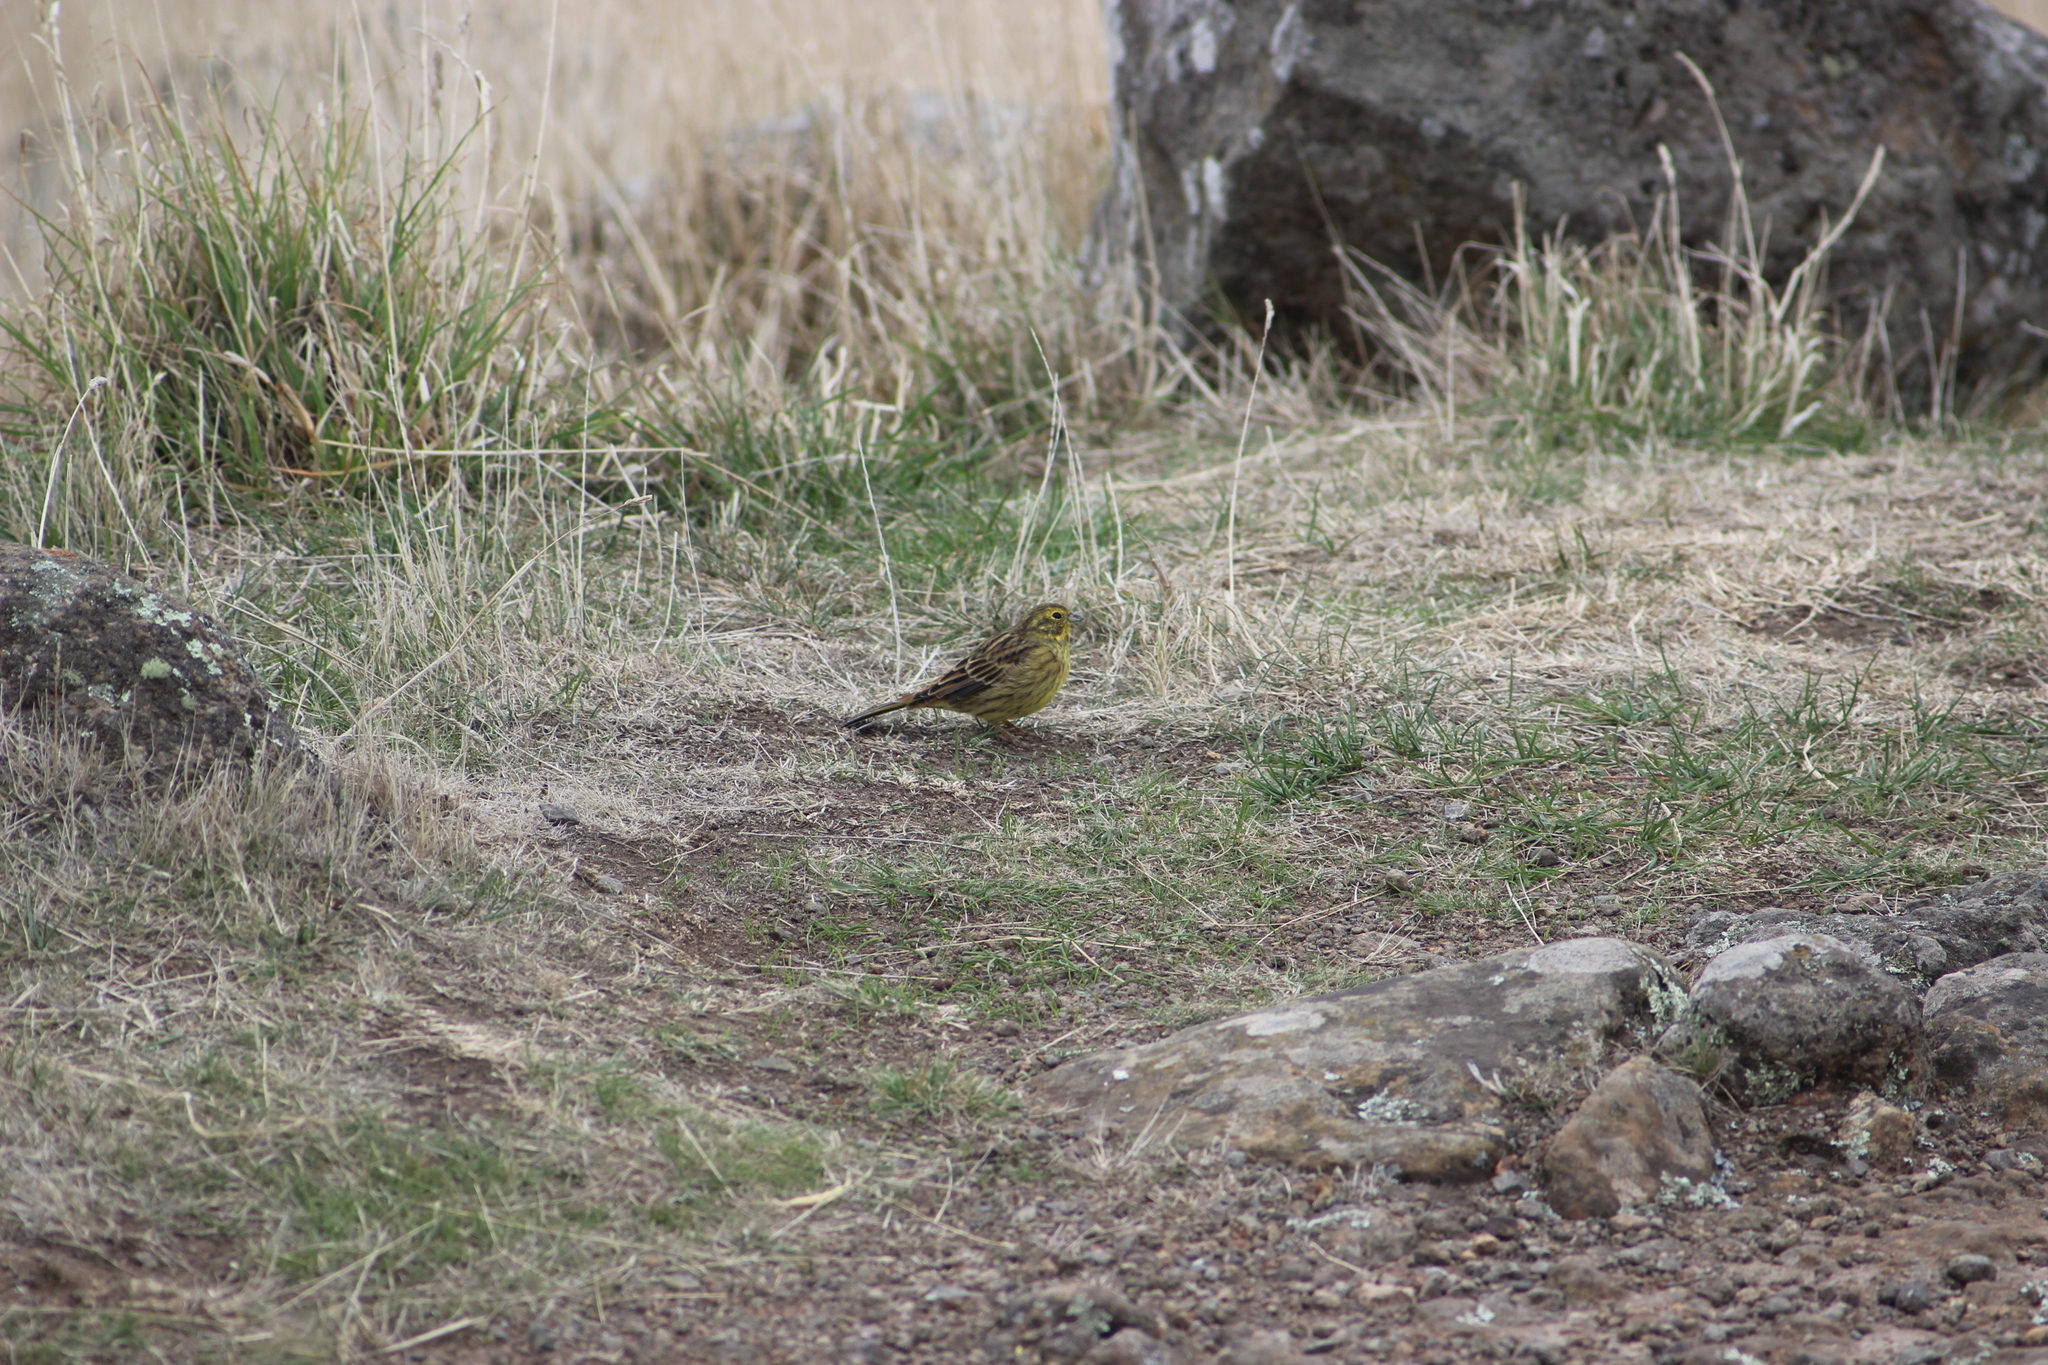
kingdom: Animalia
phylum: Chordata
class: Aves
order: Passeriformes
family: Emberizidae
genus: Emberiza
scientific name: Emberiza citrinella
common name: Yellowhammer
